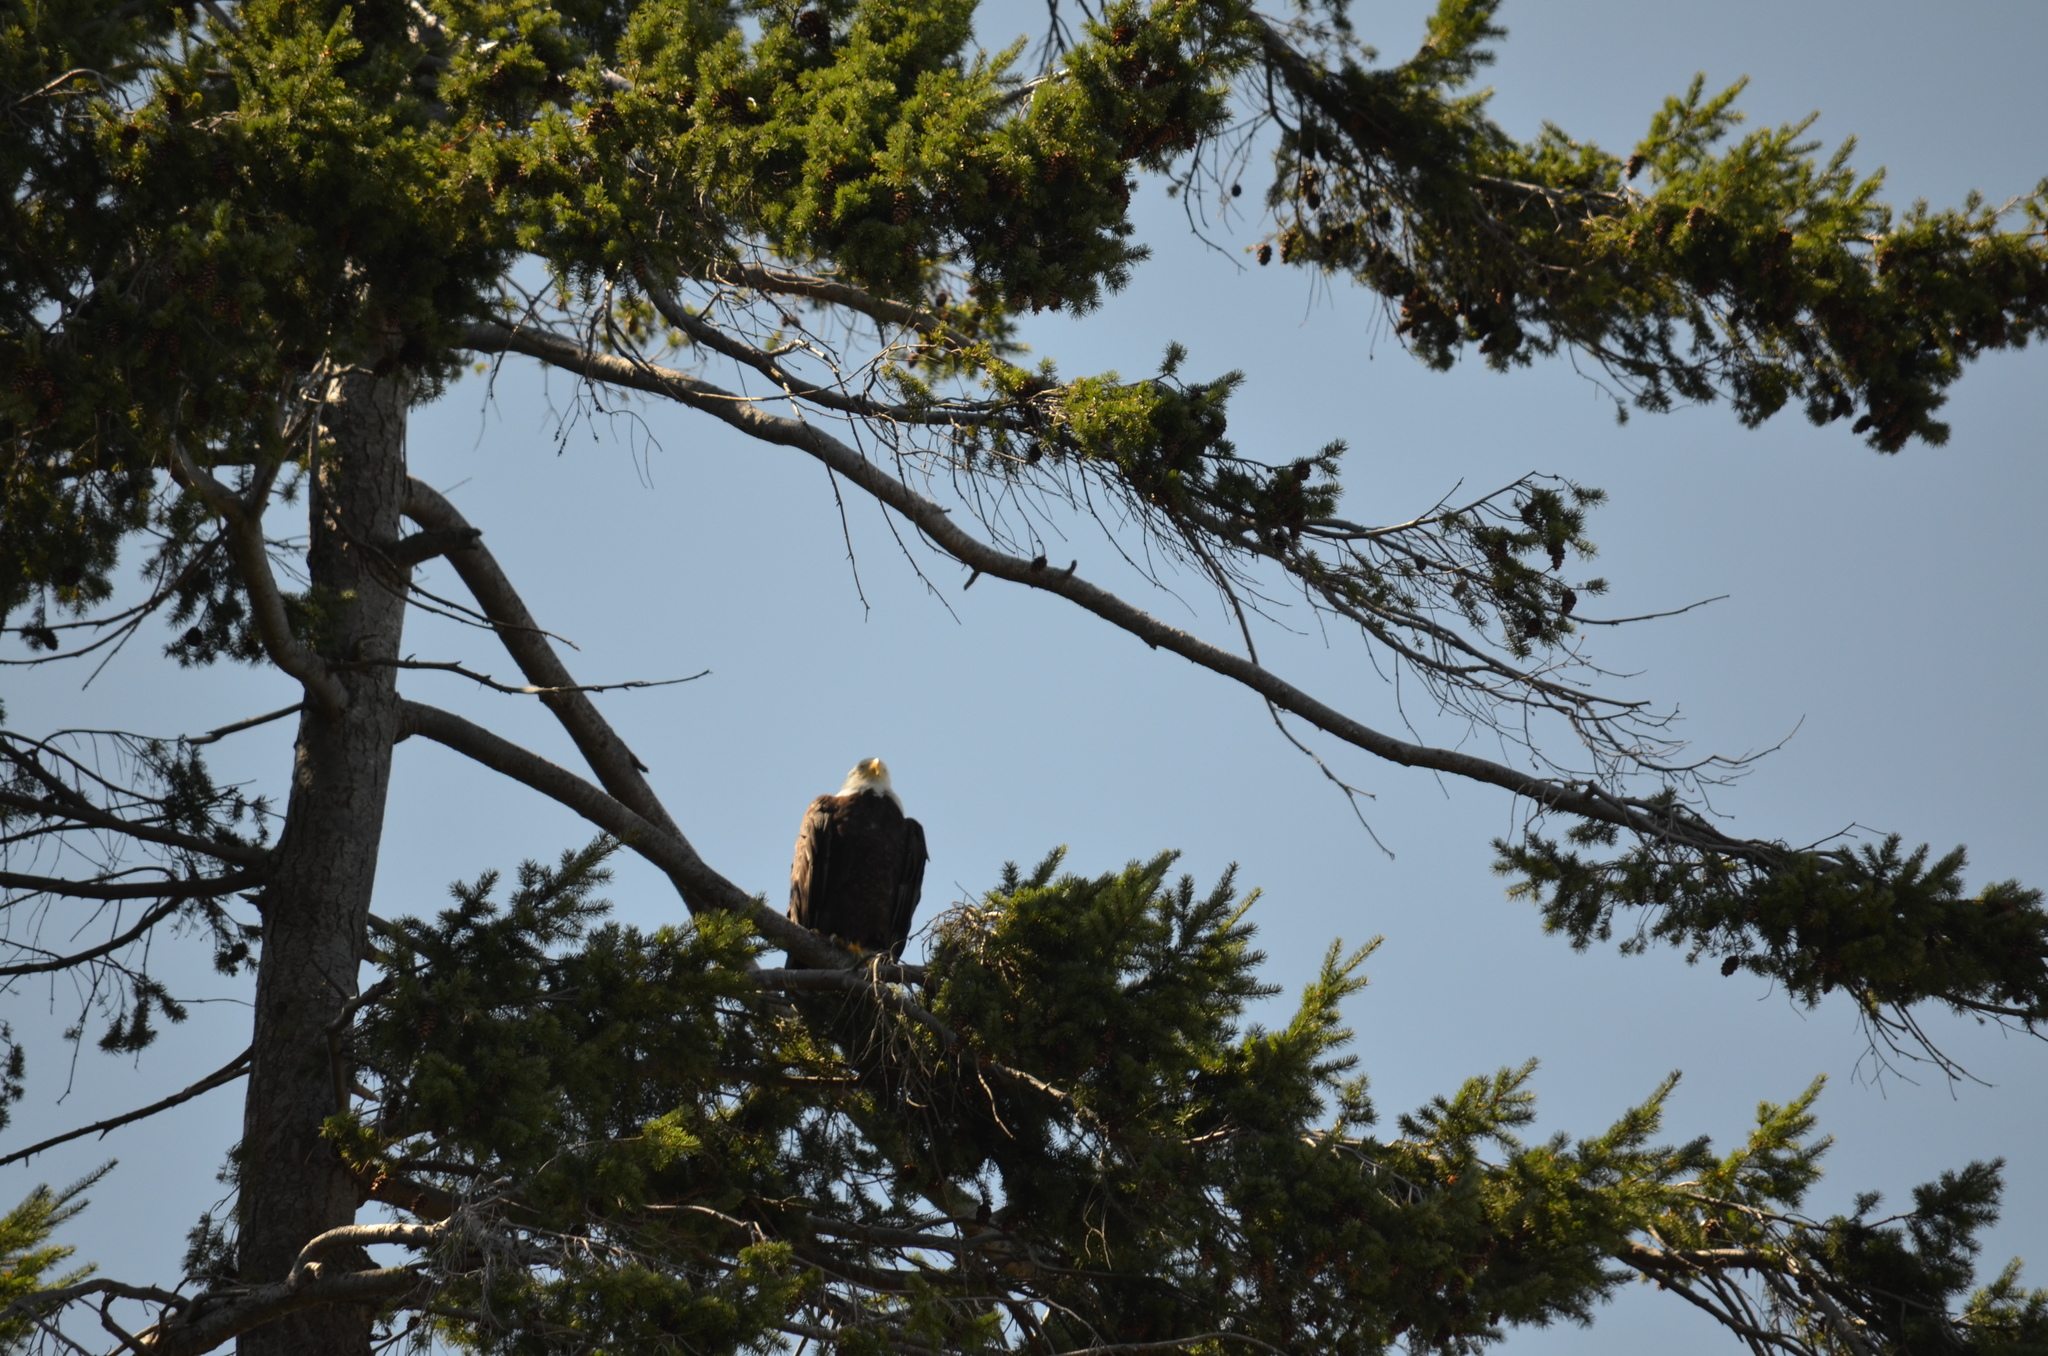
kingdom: Animalia
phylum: Chordata
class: Aves
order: Accipitriformes
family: Accipitridae
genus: Haliaeetus
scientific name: Haliaeetus leucocephalus
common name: Bald eagle
